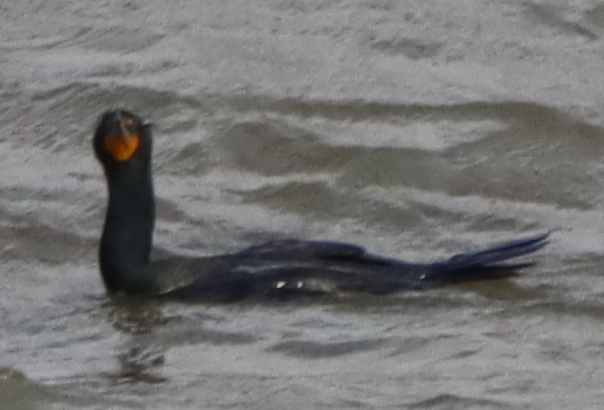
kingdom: Animalia
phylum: Chordata
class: Aves
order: Suliformes
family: Phalacrocoracidae
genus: Phalacrocorax
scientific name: Phalacrocorax auritus
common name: Double-crested cormorant
